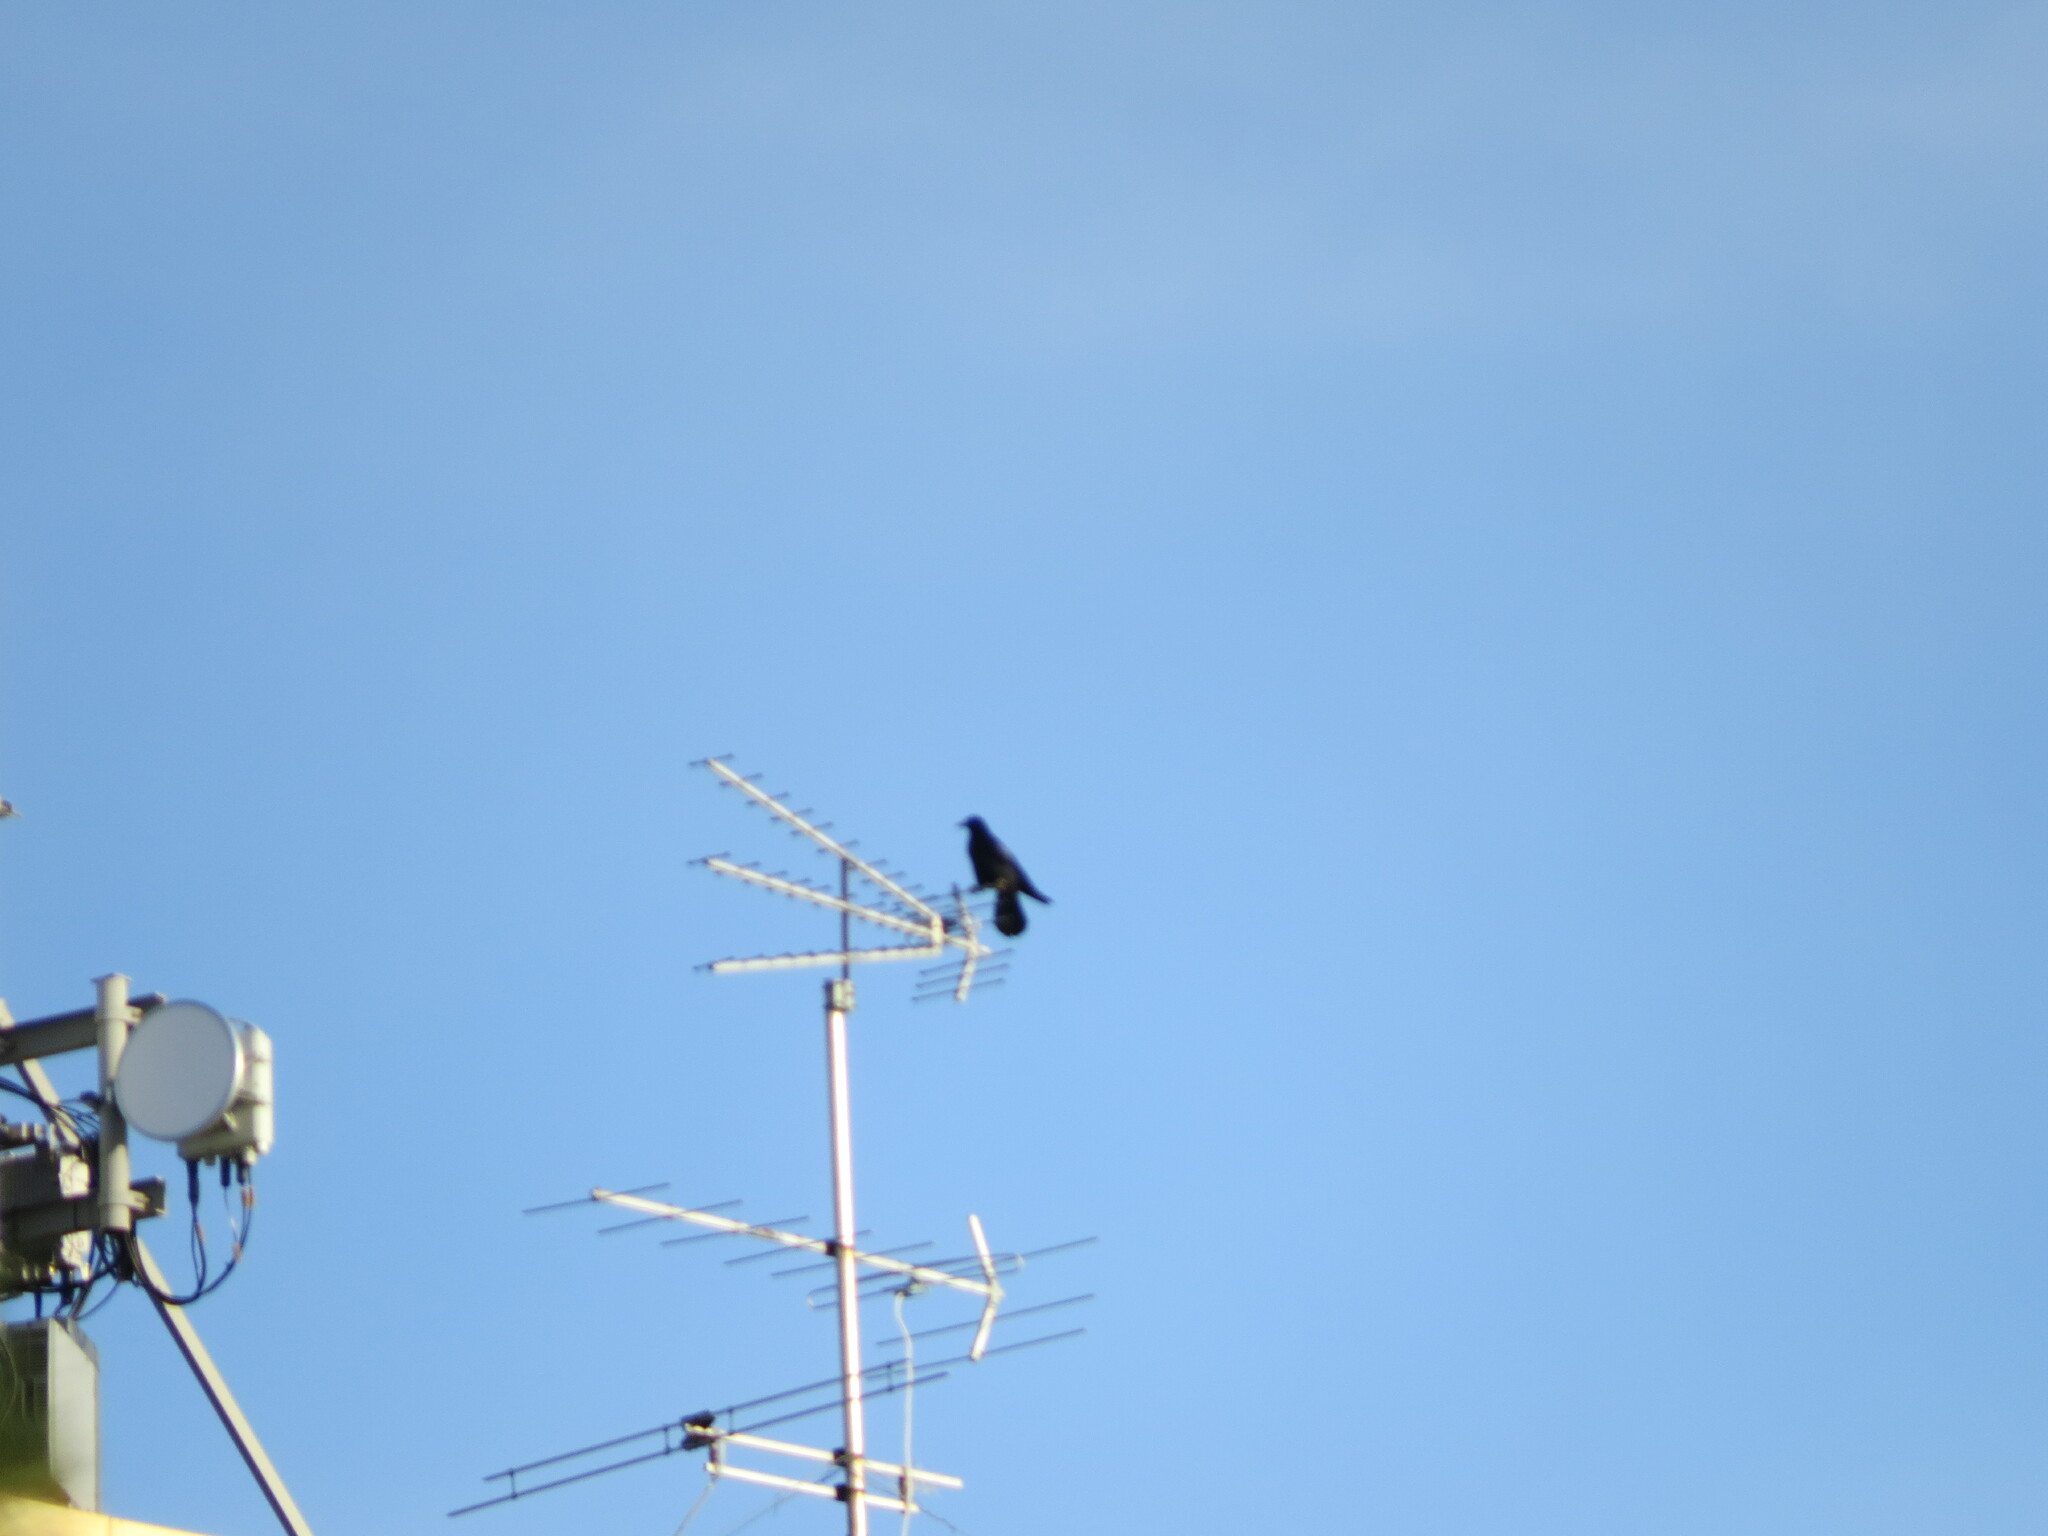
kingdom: Animalia
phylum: Chordata
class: Aves
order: Passeriformes
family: Corvidae
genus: Corvus
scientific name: Corvus frugilegus
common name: Rook
